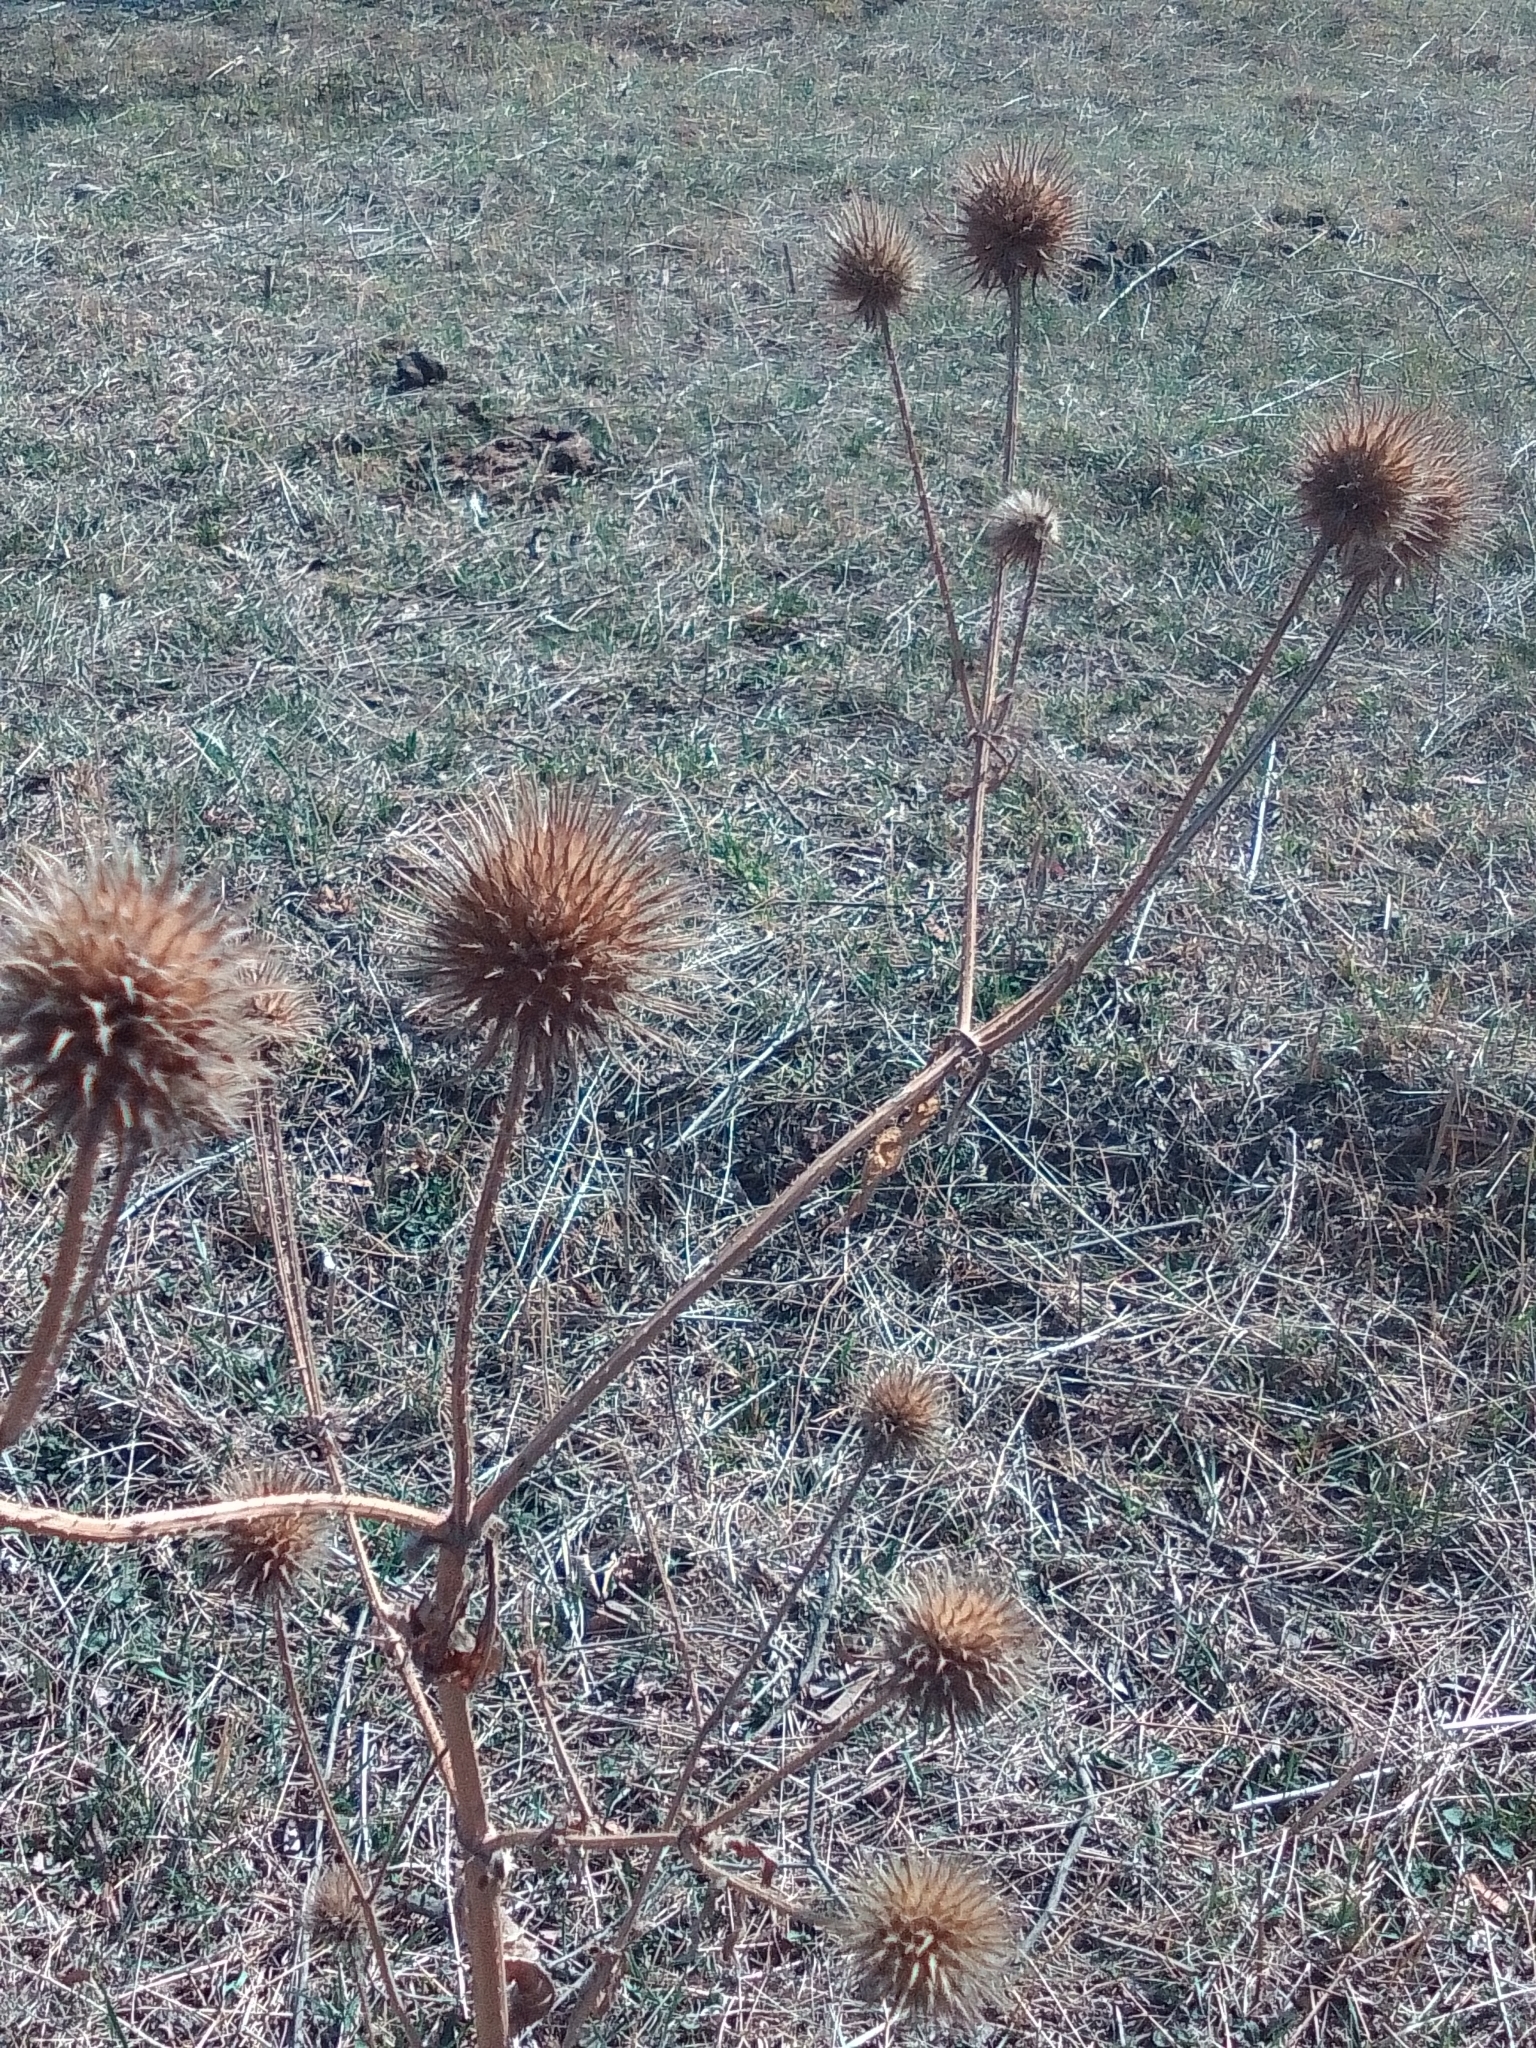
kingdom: Plantae
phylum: Tracheophyta
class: Magnoliopsida
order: Dipsacales
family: Caprifoliaceae
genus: Dipsacus
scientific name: Dipsacus strigosus
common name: Yellow-flowered teasel
